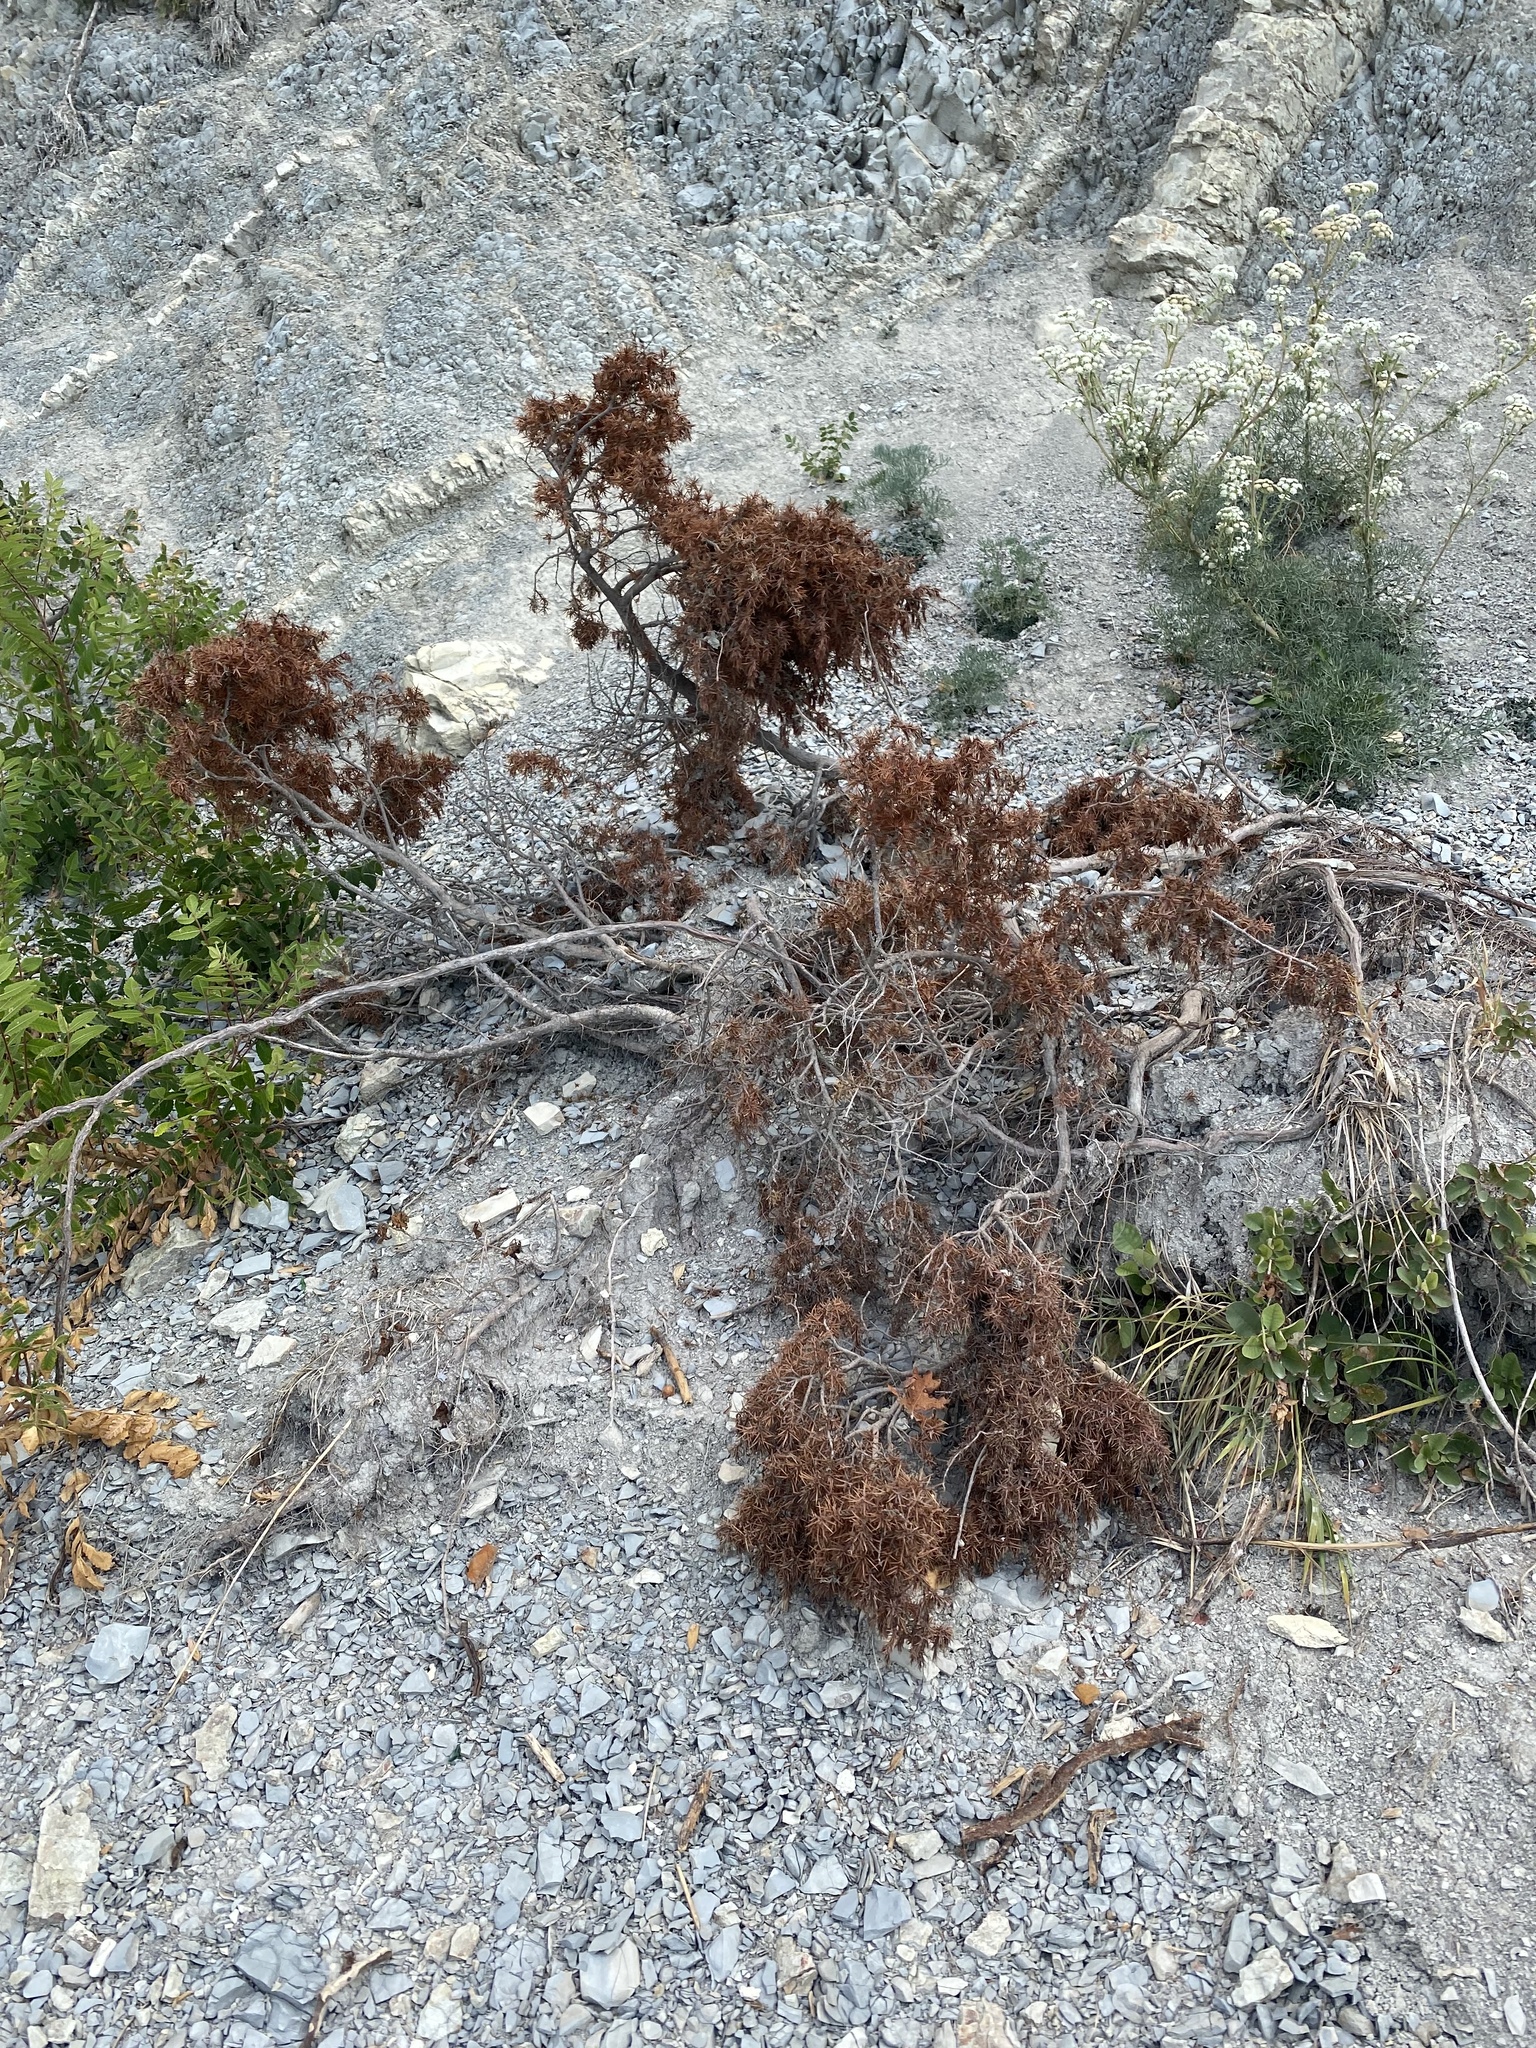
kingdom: Plantae
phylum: Tracheophyta
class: Pinopsida
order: Pinales
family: Cupressaceae
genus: Juniperus
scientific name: Juniperus oxycedrus
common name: Prickly juniper
